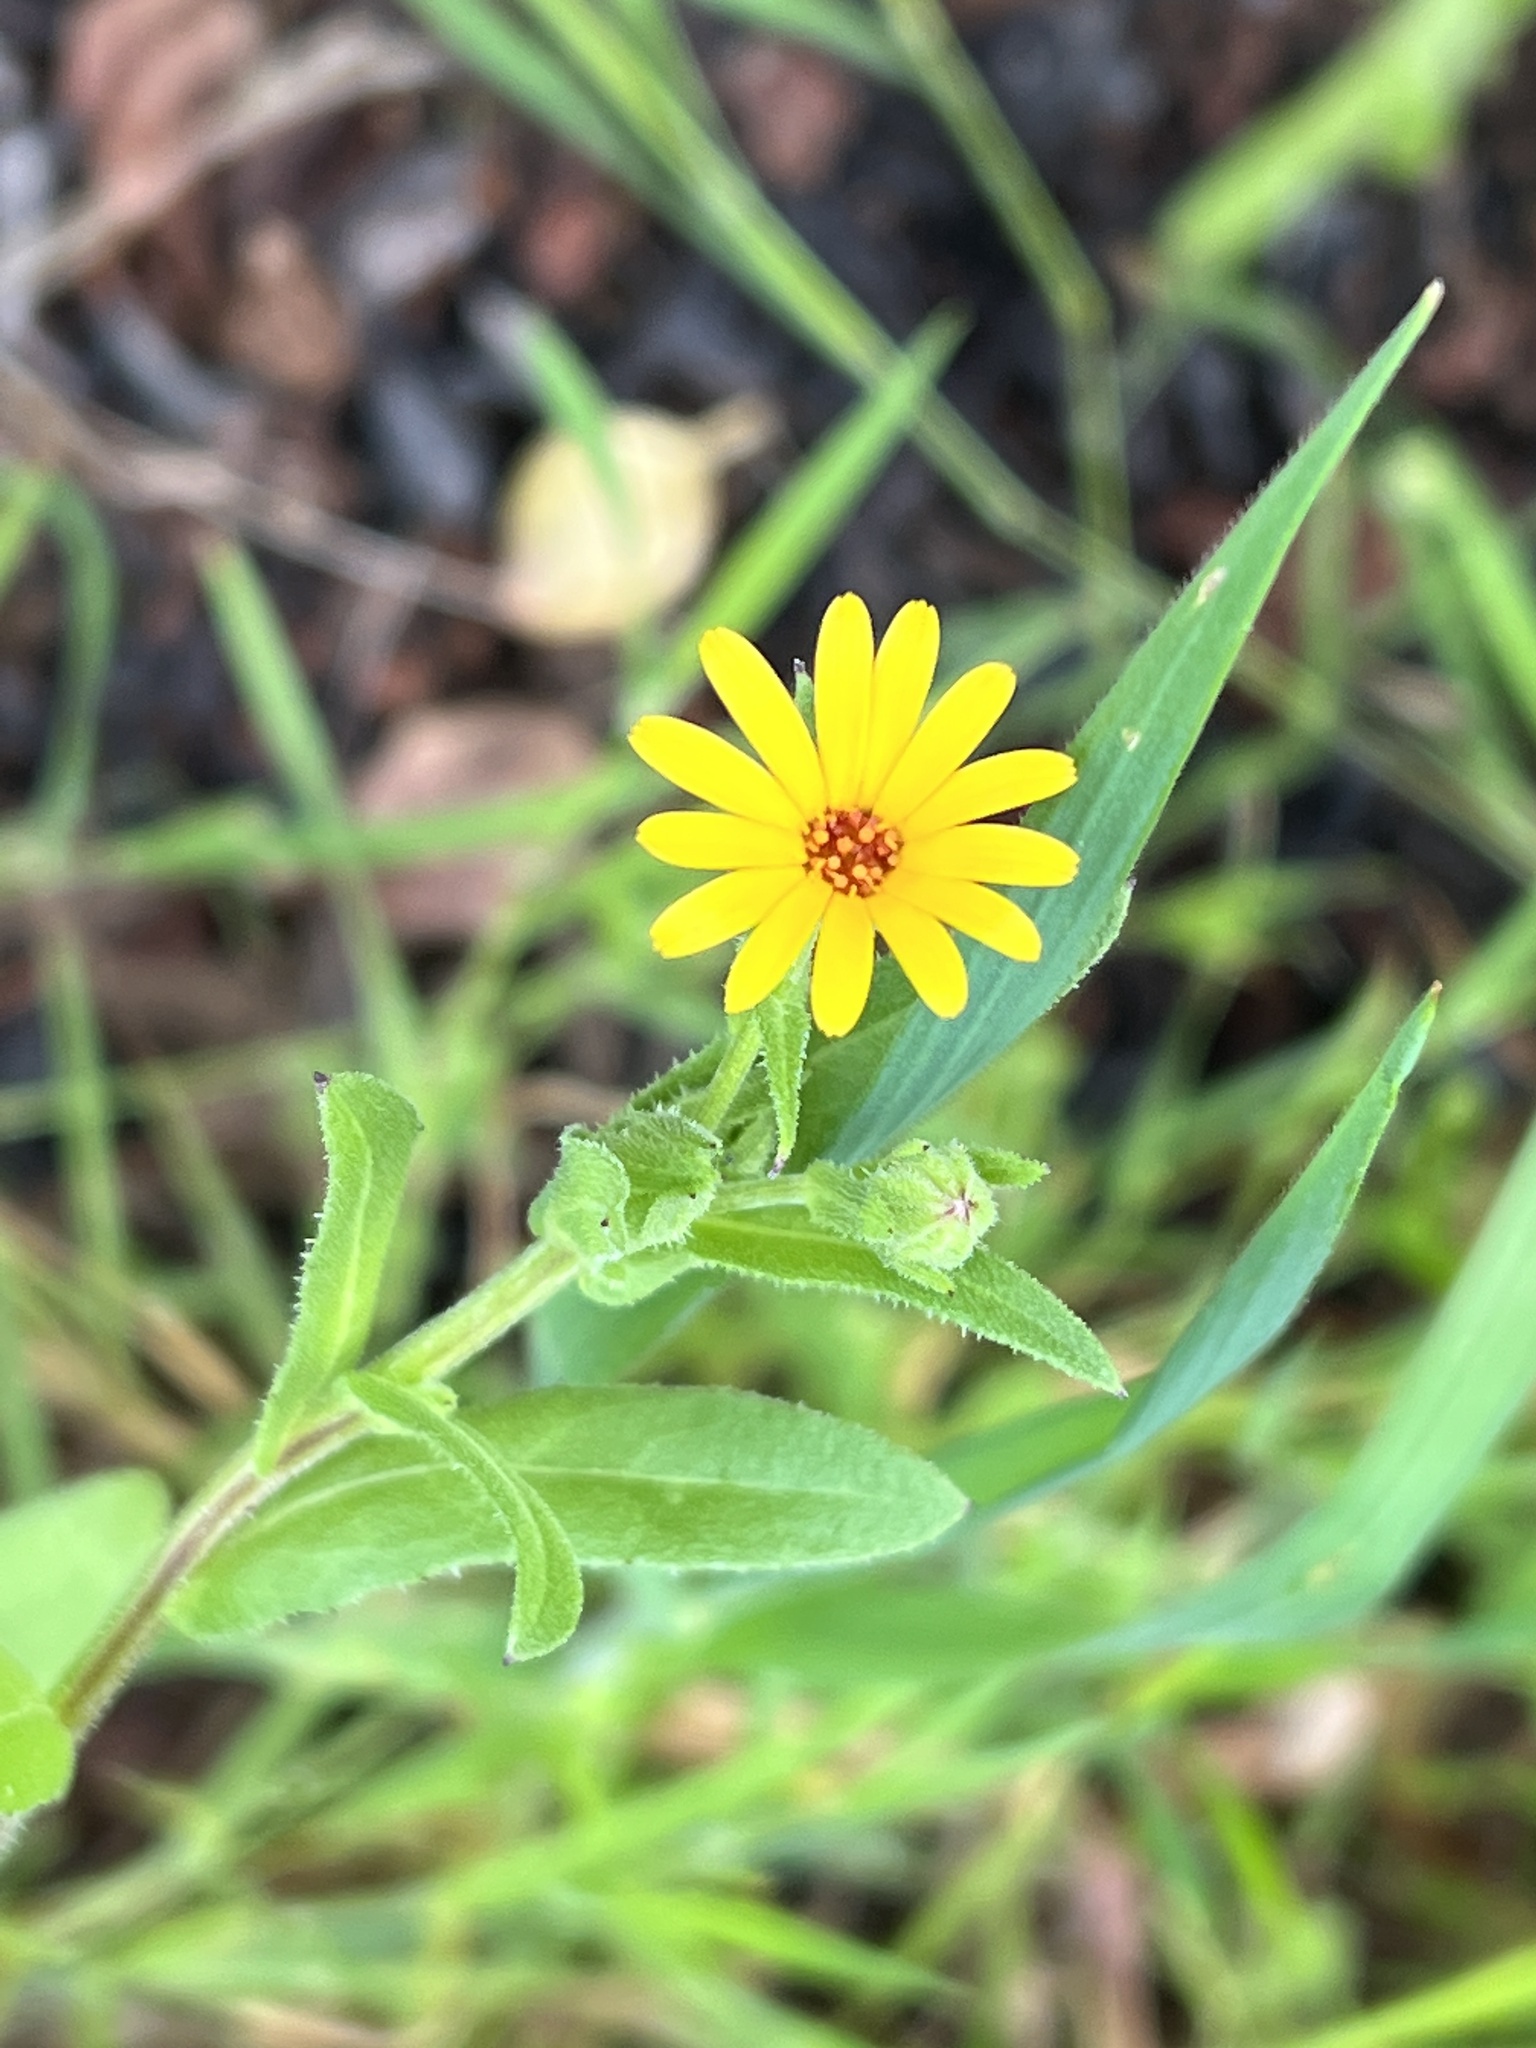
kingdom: Plantae
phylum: Tracheophyta
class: Magnoliopsida
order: Asterales
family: Asteraceae
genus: Calendula
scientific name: Calendula arvensis
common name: Field marigold
